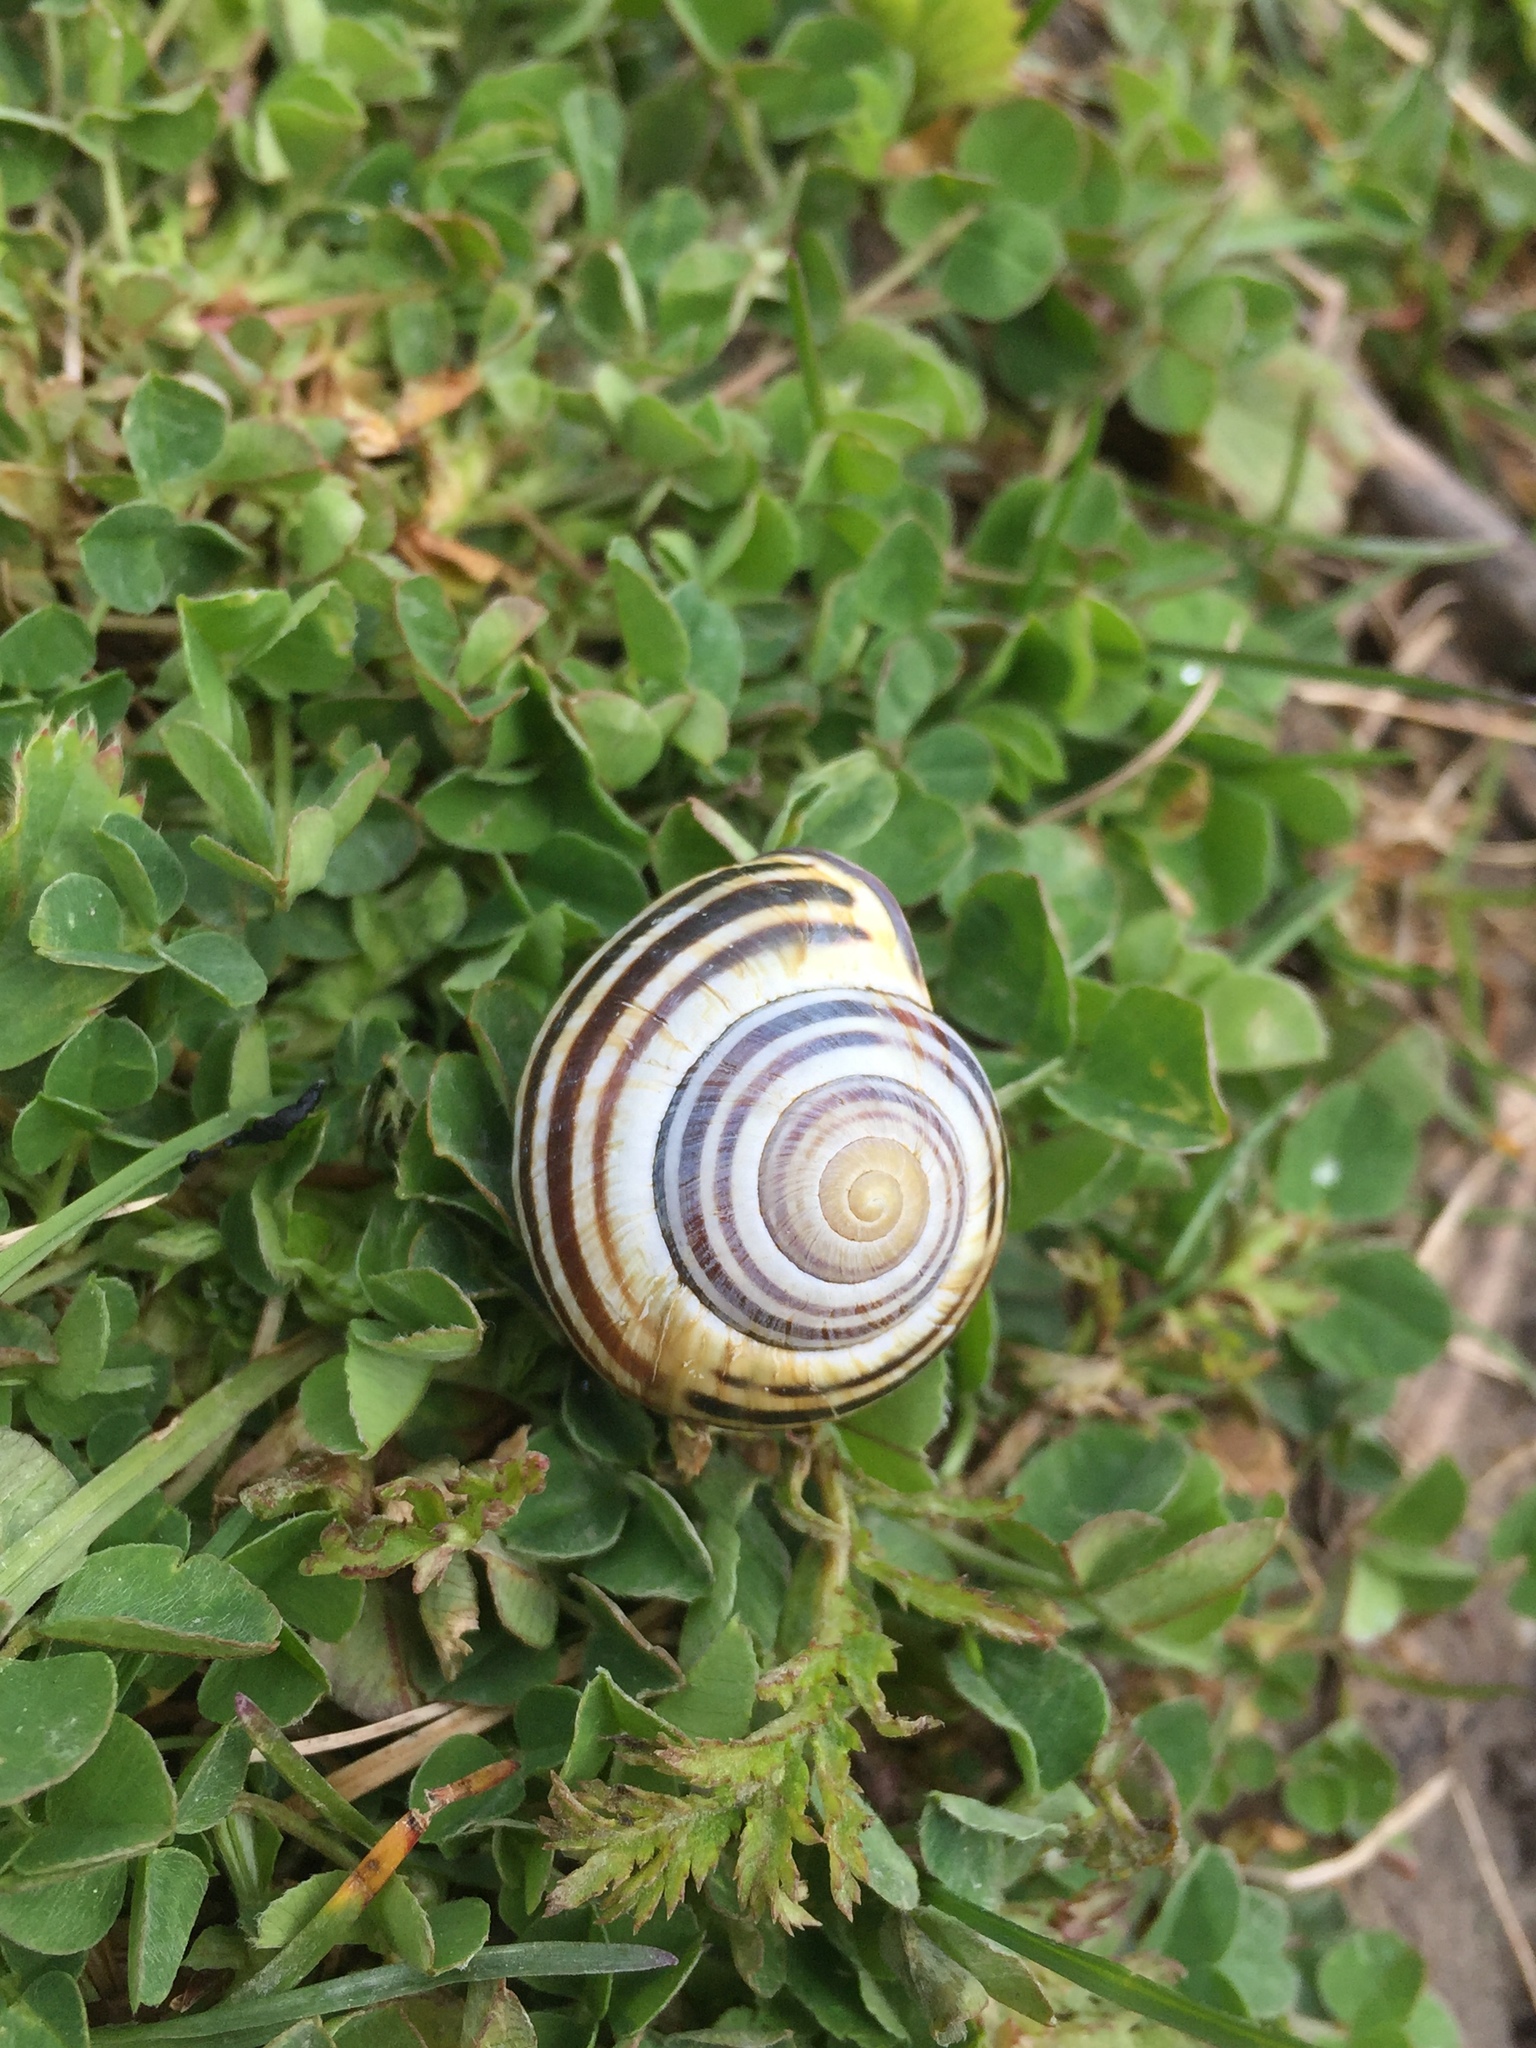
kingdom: Animalia
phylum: Mollusca
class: Gastropoda
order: Stylommatophora
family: Helicidae
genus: Cepaea
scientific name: Cepaea nemoralis
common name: Grovesnail
